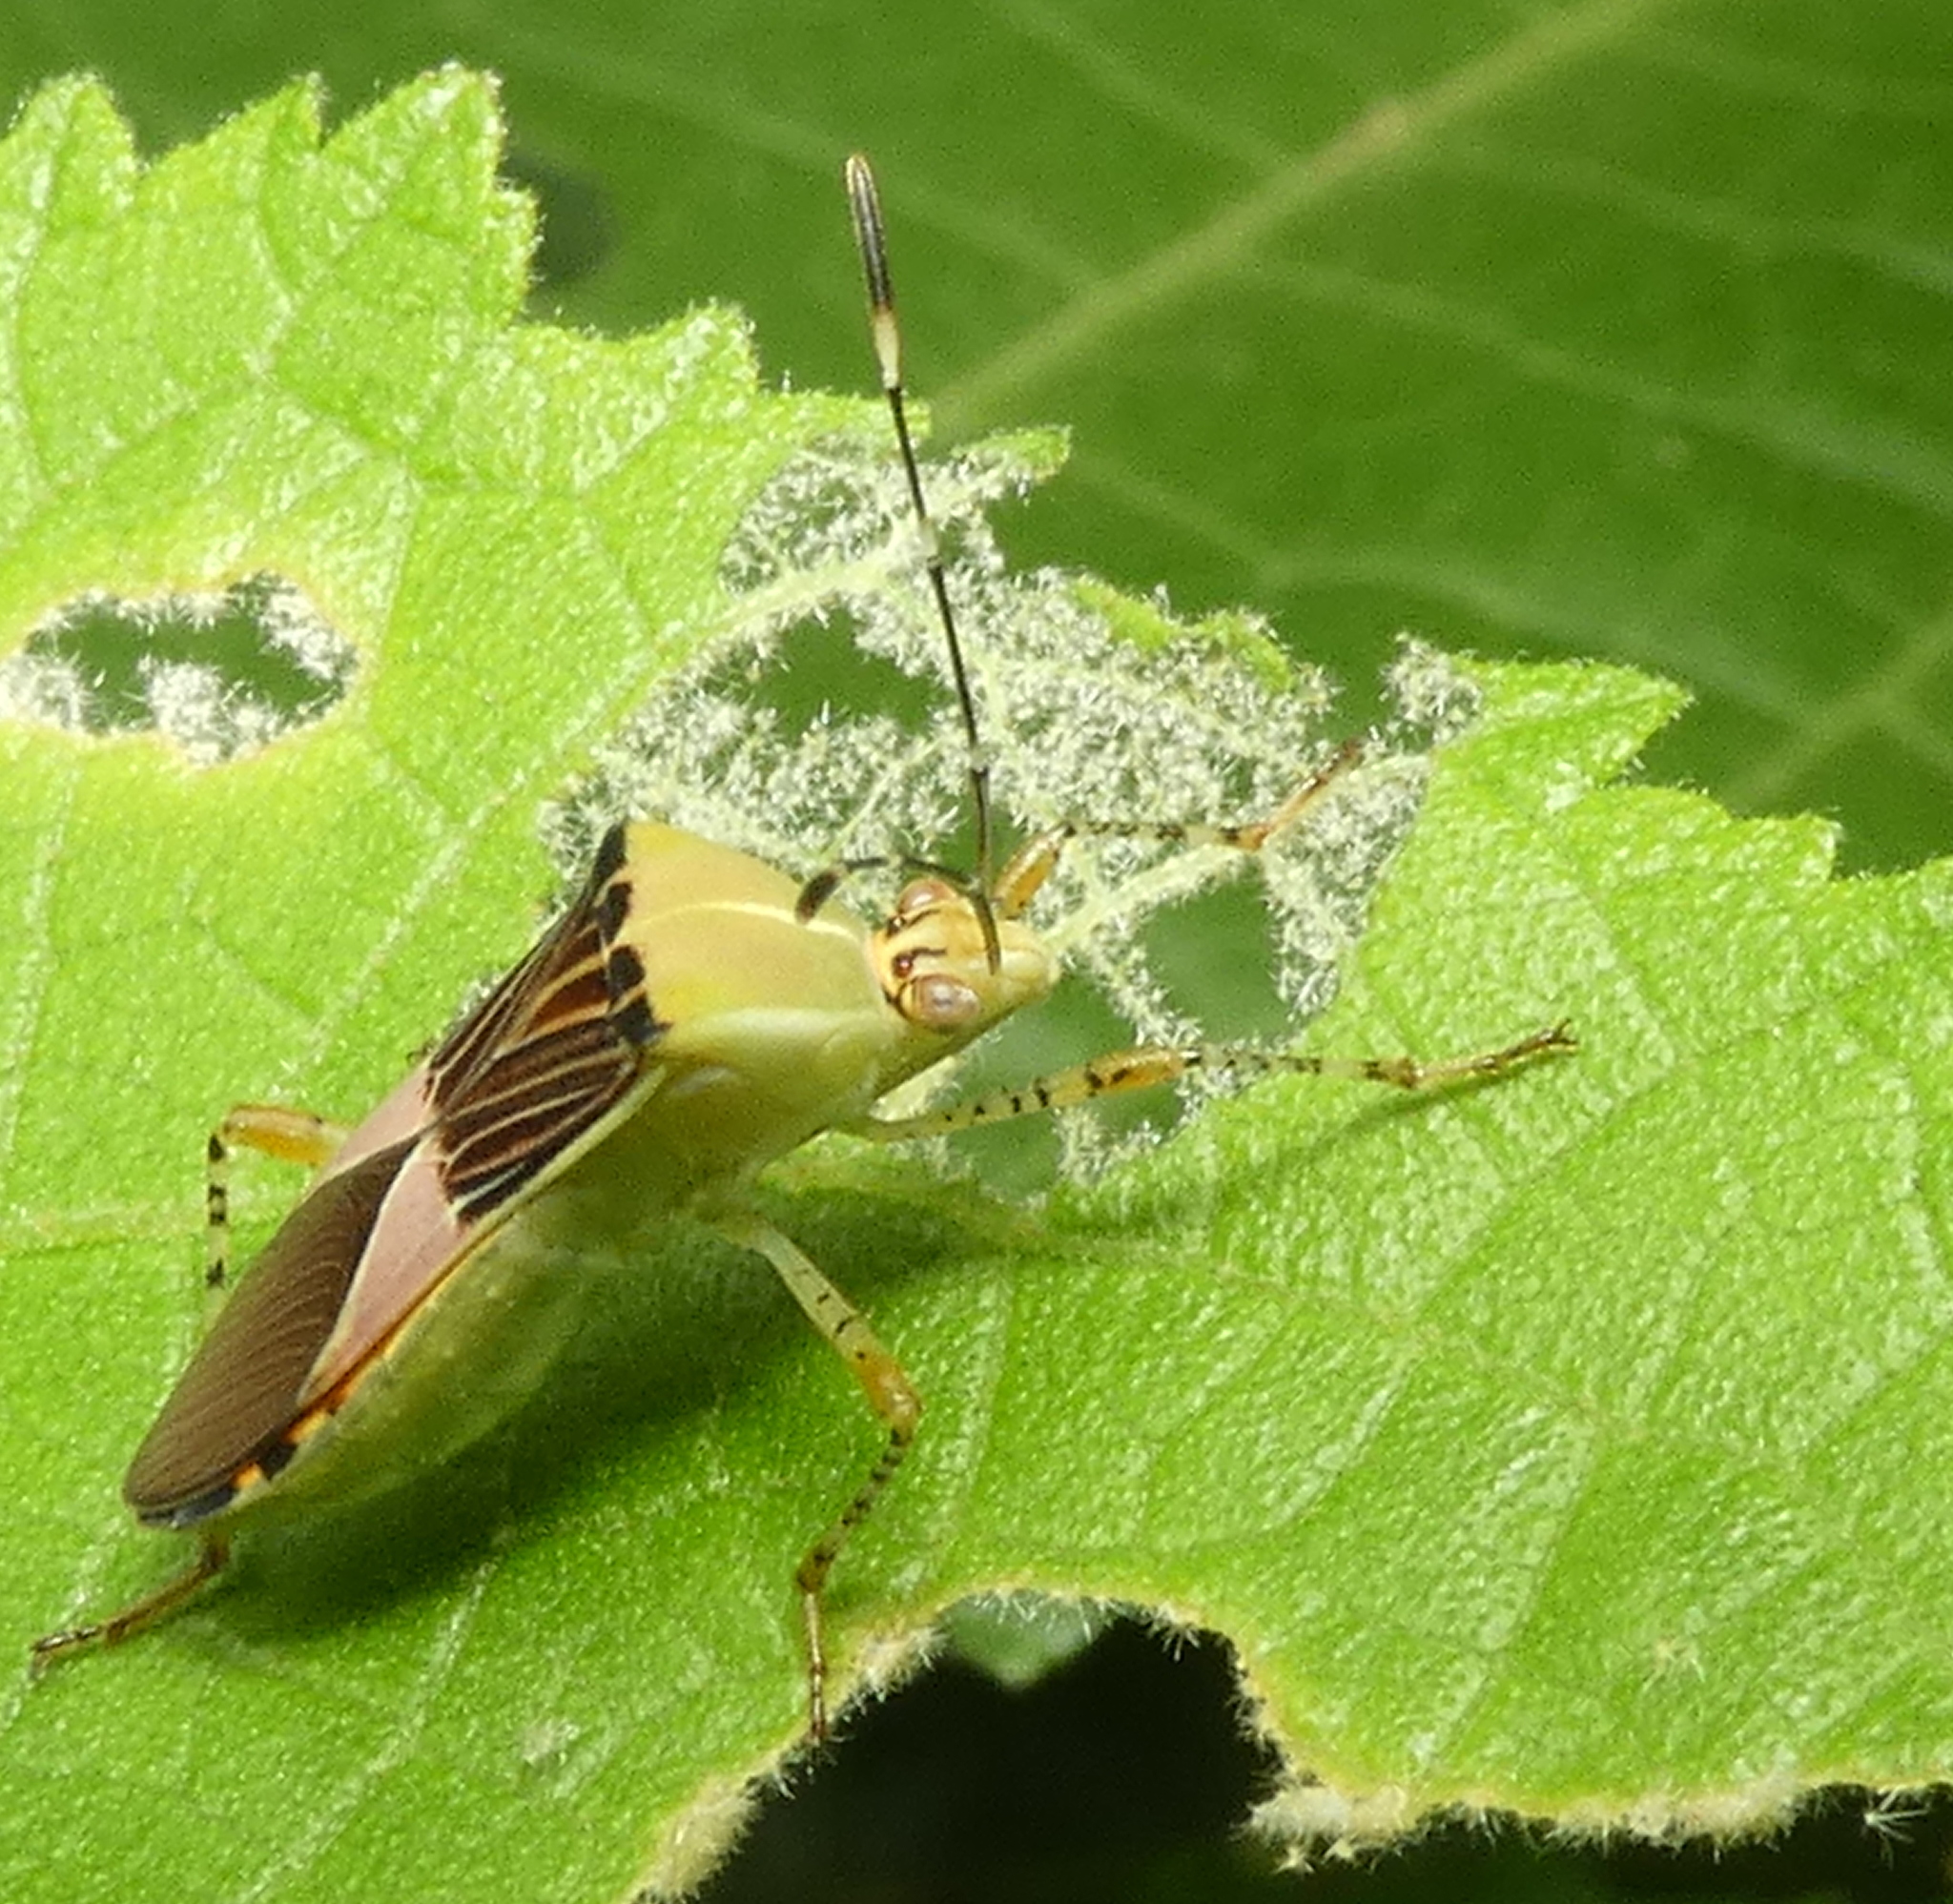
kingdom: Animalia
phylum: Arthropoda
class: Insecta
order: Hemiptera
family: Coreidae
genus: Hypselonotus
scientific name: Hypselonotus fulvus
